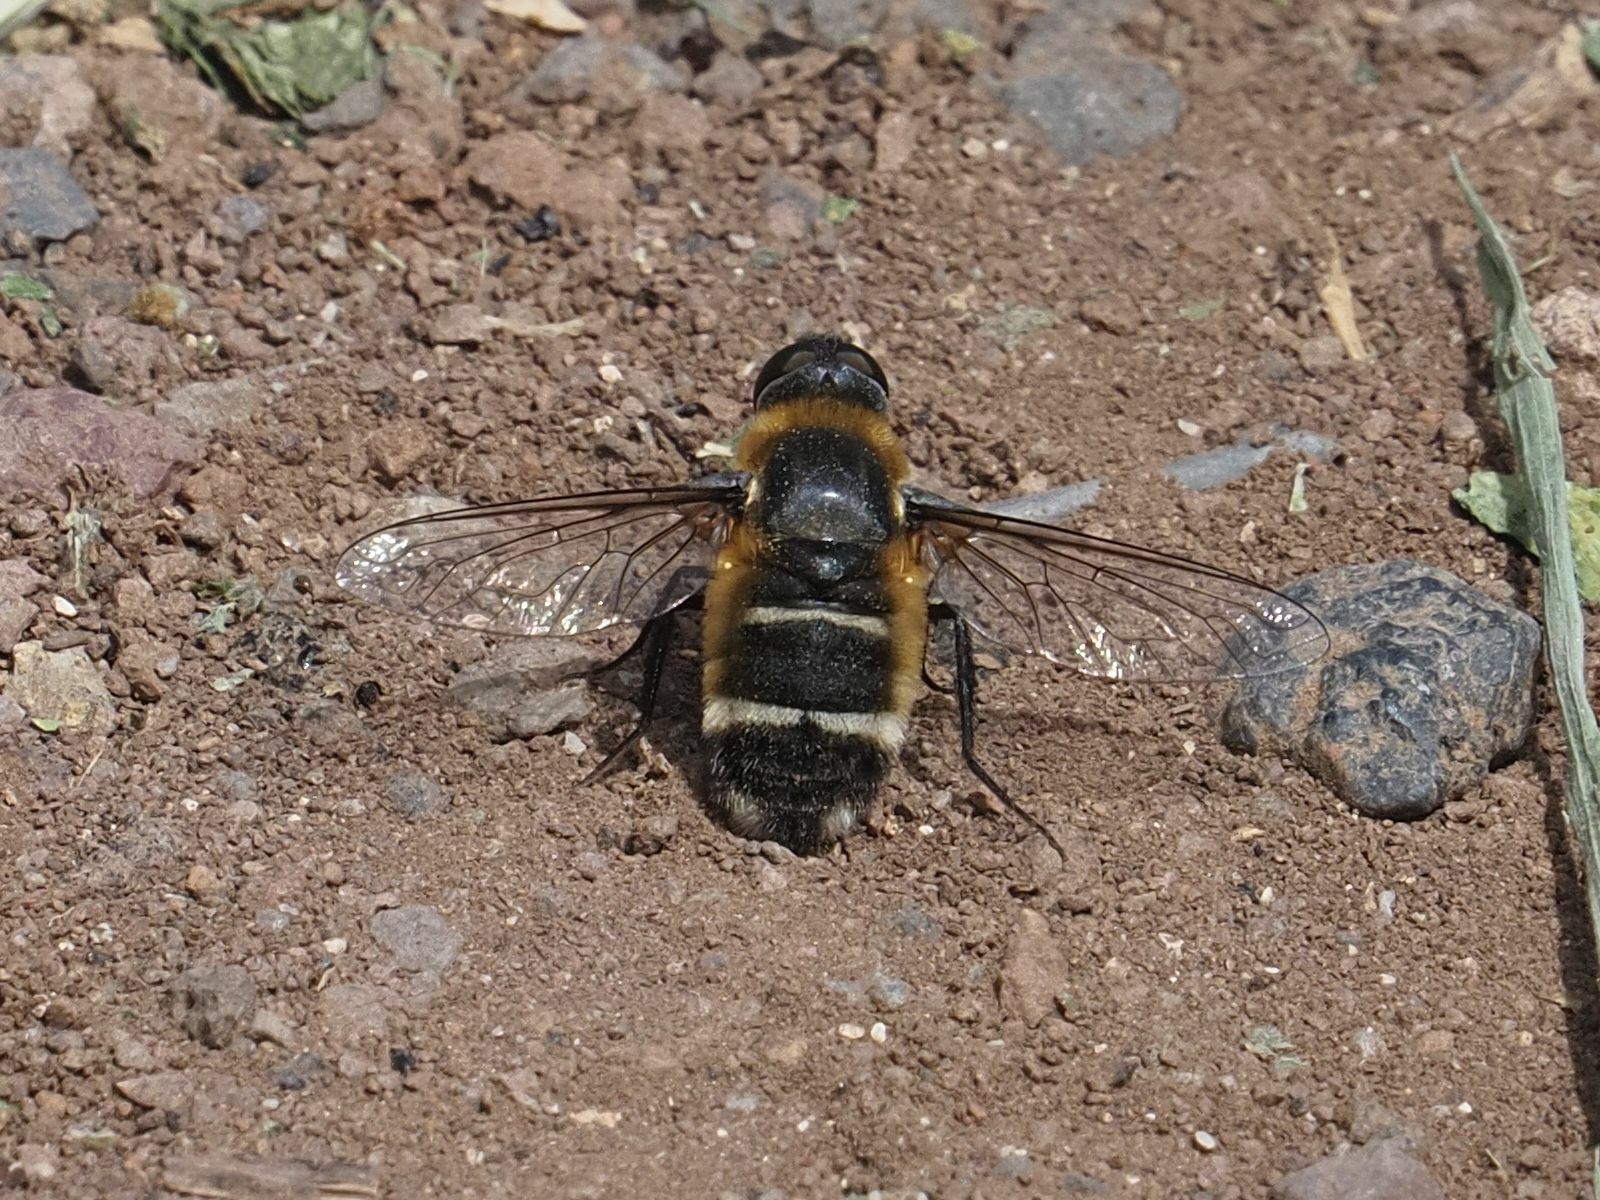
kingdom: Animalia
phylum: Arthropoda
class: Insecta
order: Diptera
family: Bombyliidae
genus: Villa
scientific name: Villa nigriceps
